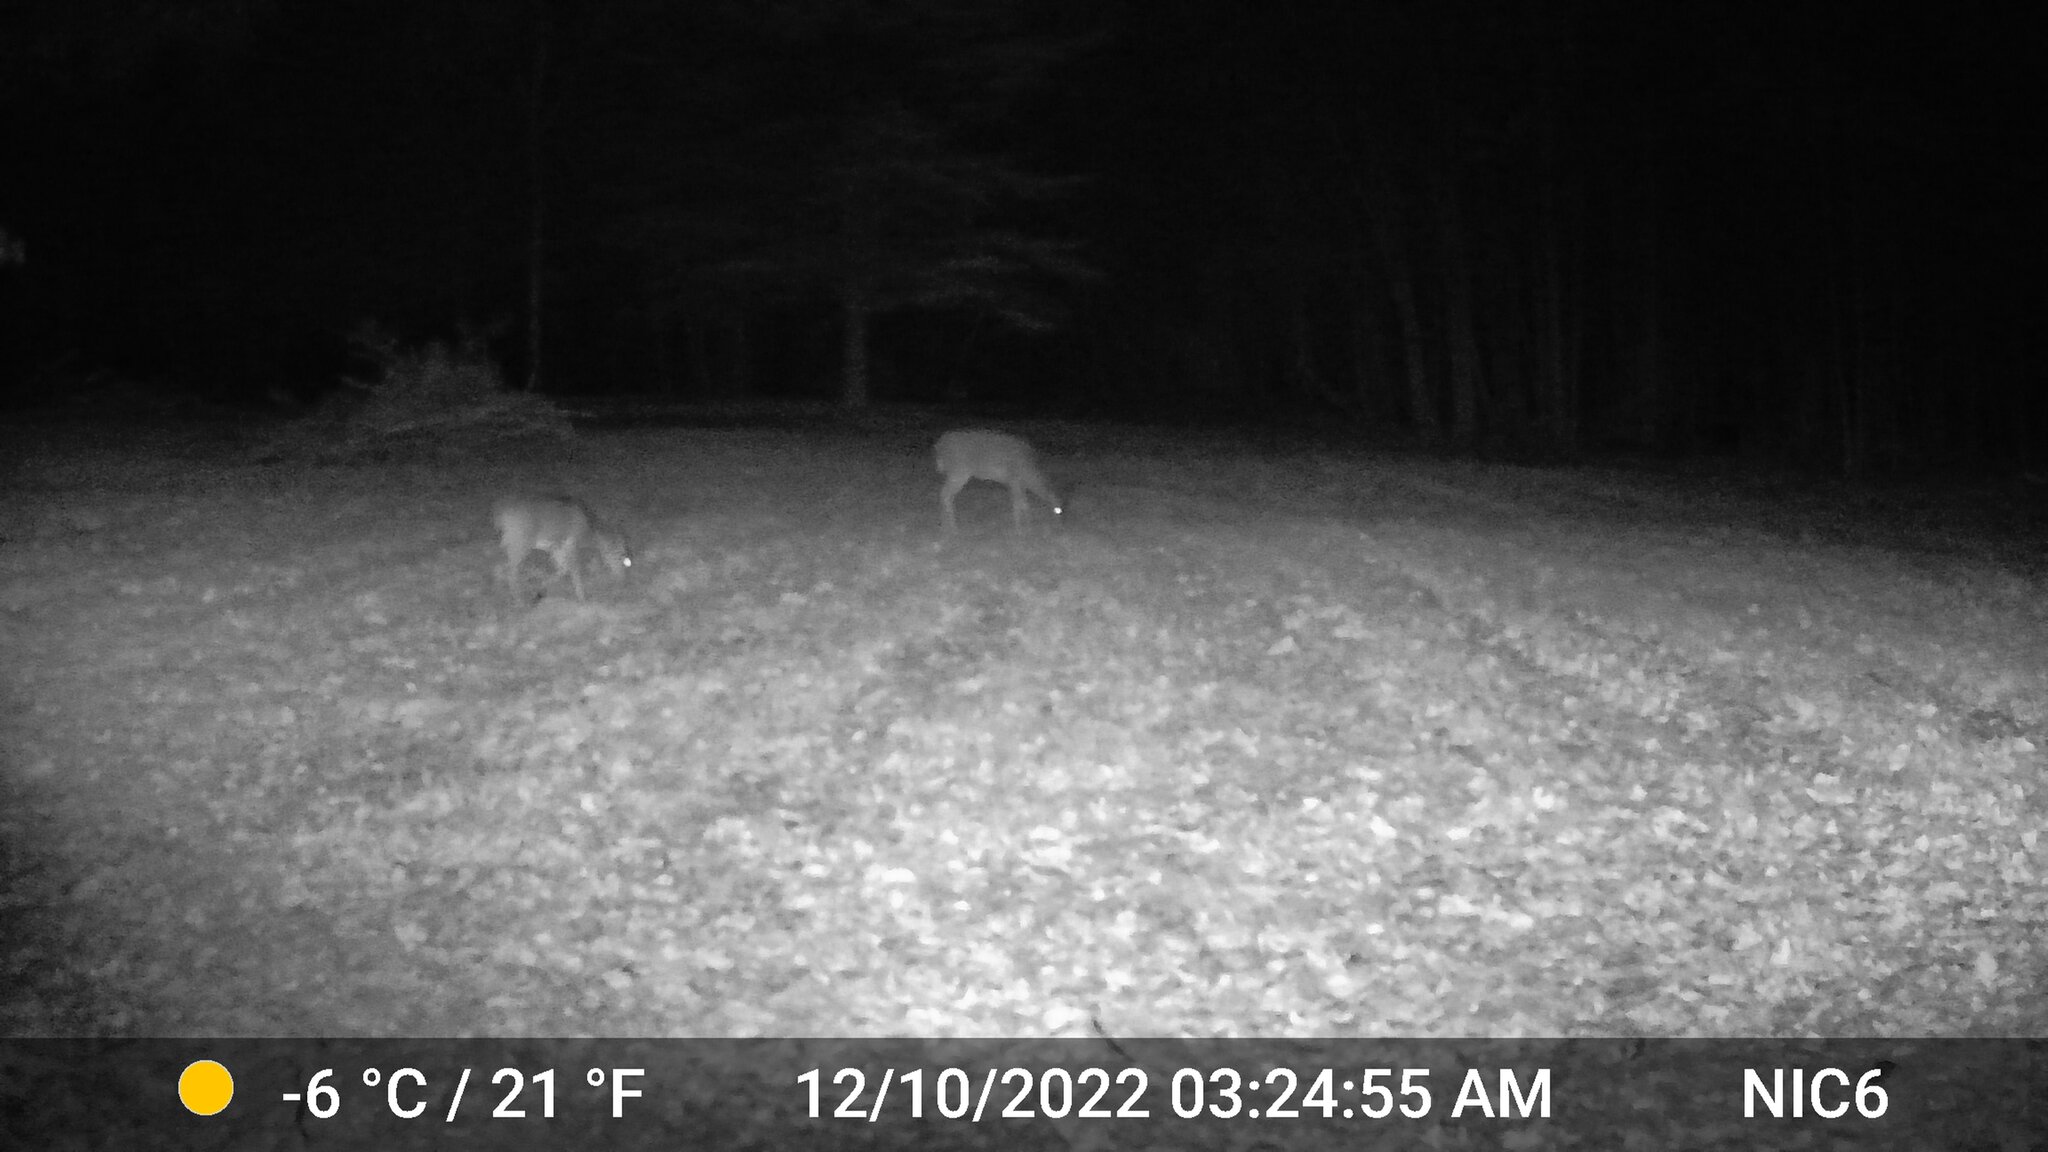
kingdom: Animalia
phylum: Chordata
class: Mammalia
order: Artiodactyla
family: Cervidae
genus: Odocoileus
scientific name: Odocoileus virginianus
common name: White-tailed deer
